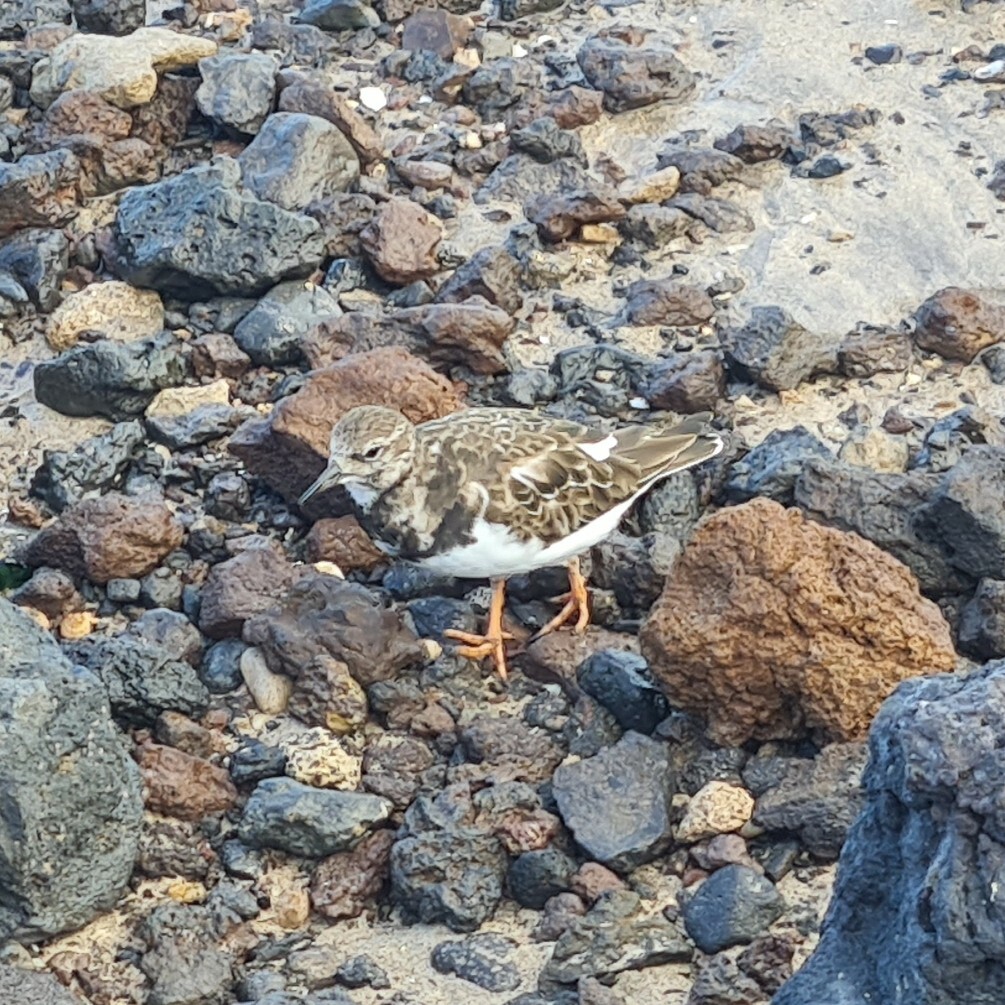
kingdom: Animalia
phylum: Chordata
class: Aves
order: Charadriiformes
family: Scolopacidae
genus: Arenaria
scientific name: Arenaria interpres
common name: Ruddy turnstone
